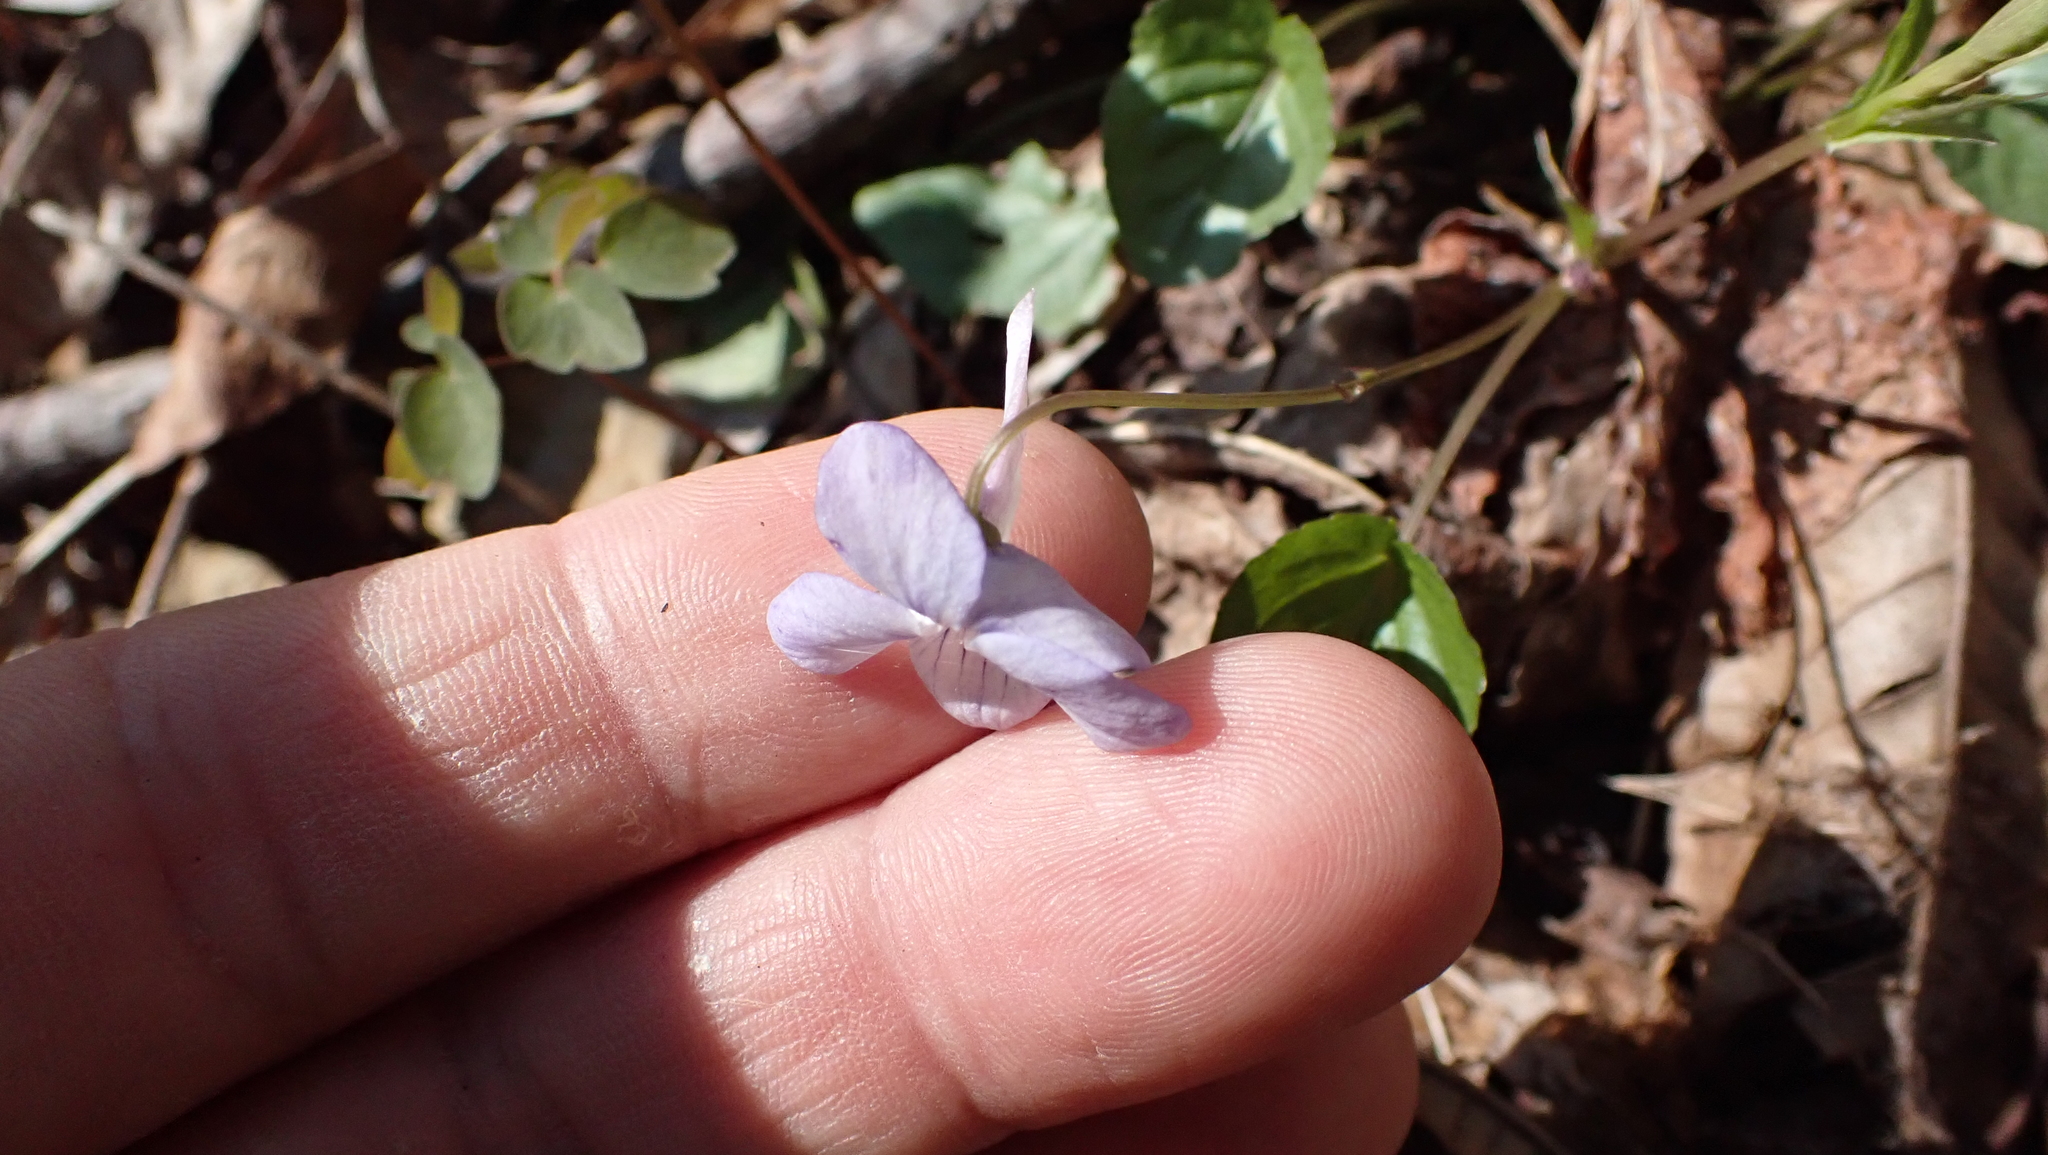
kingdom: Plantae
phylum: Tracheophyta
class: Magnoliopsida
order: Malpighiales
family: Violaceae
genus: Viola
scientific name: Viola rostrata
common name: Long-spur violet
